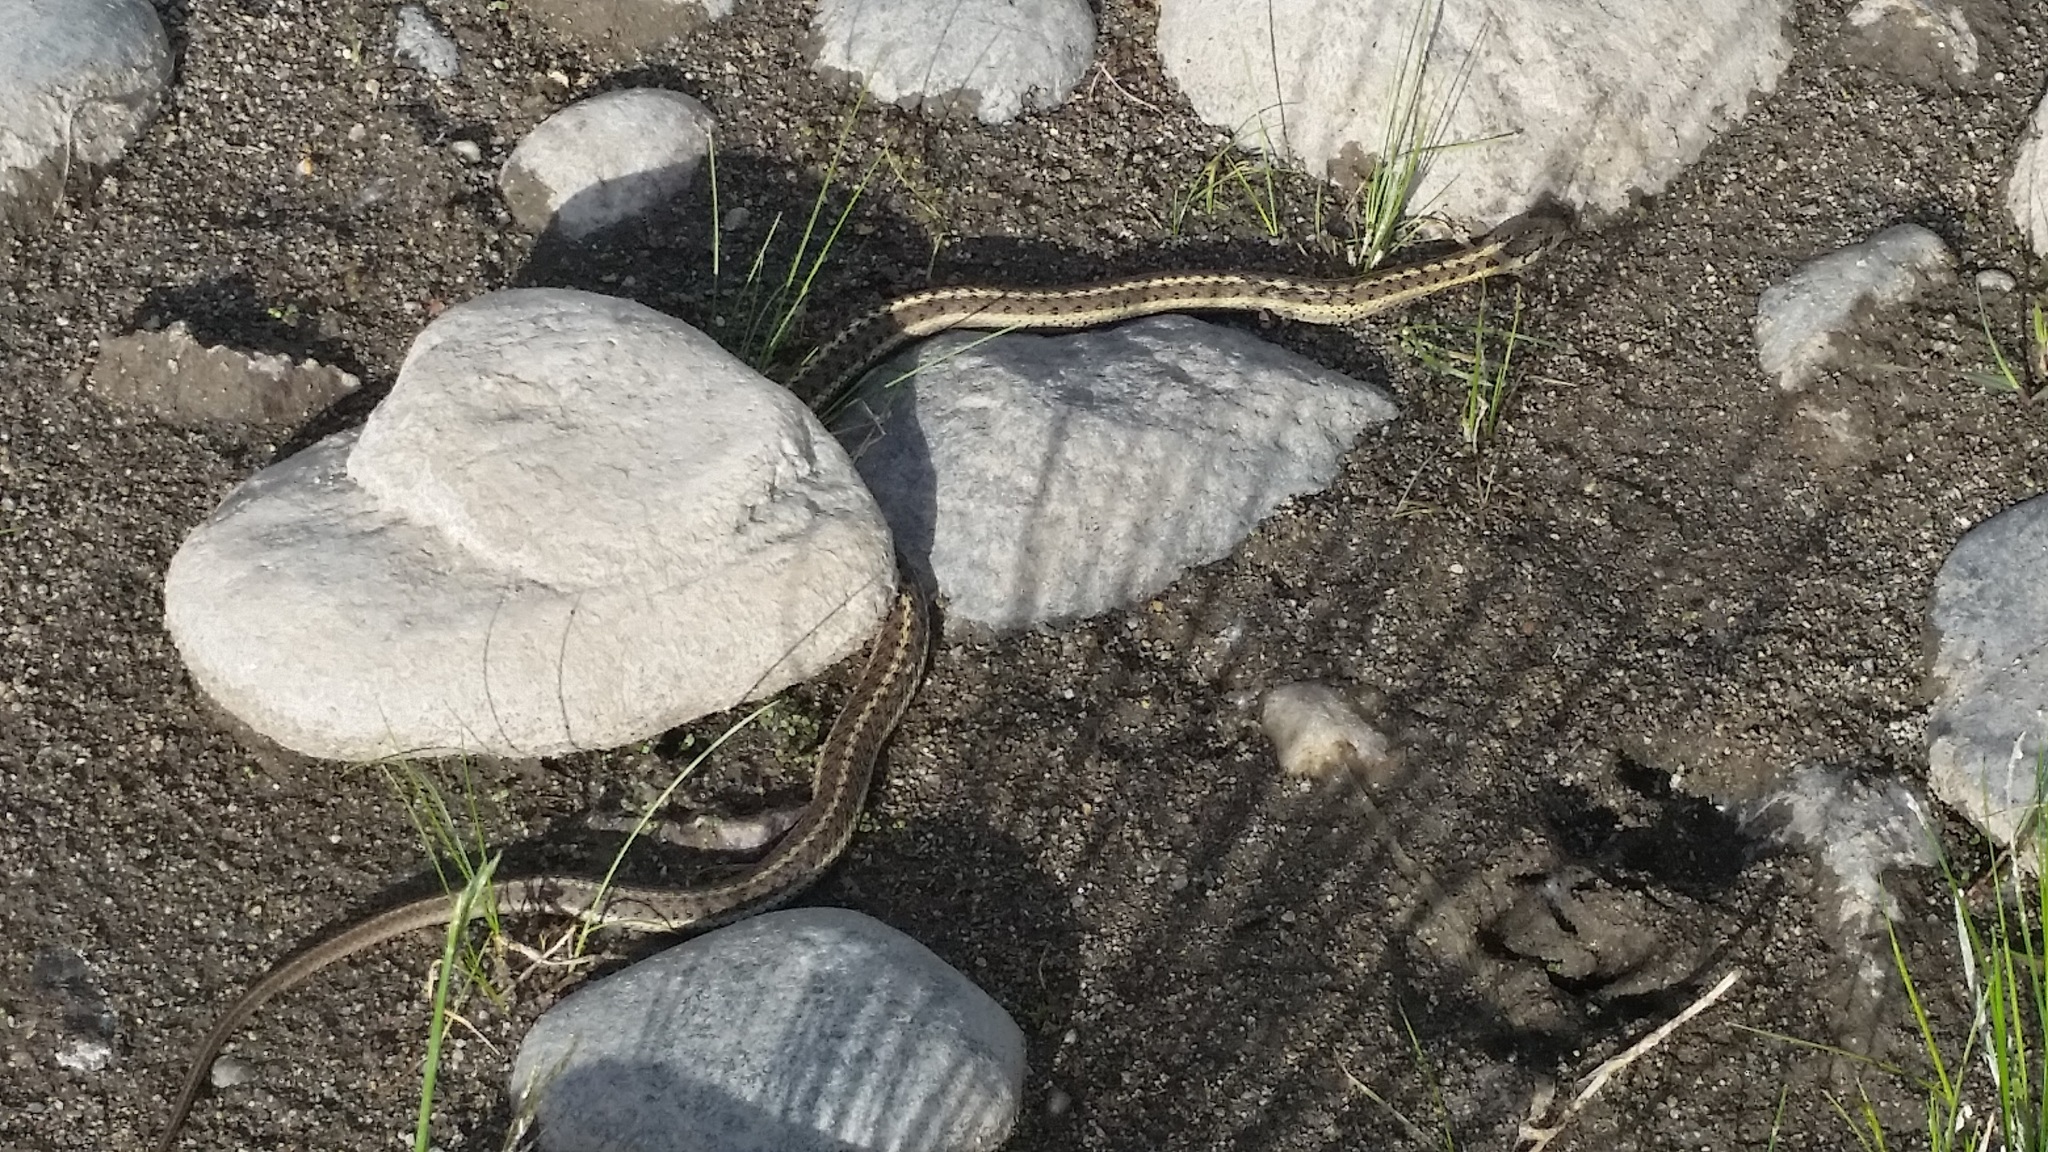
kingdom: Animalia
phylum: Chordata
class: Squamata
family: Colubridae
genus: Thamnophis
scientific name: Thamnophis elegans
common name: Western terrestrial garter snake
